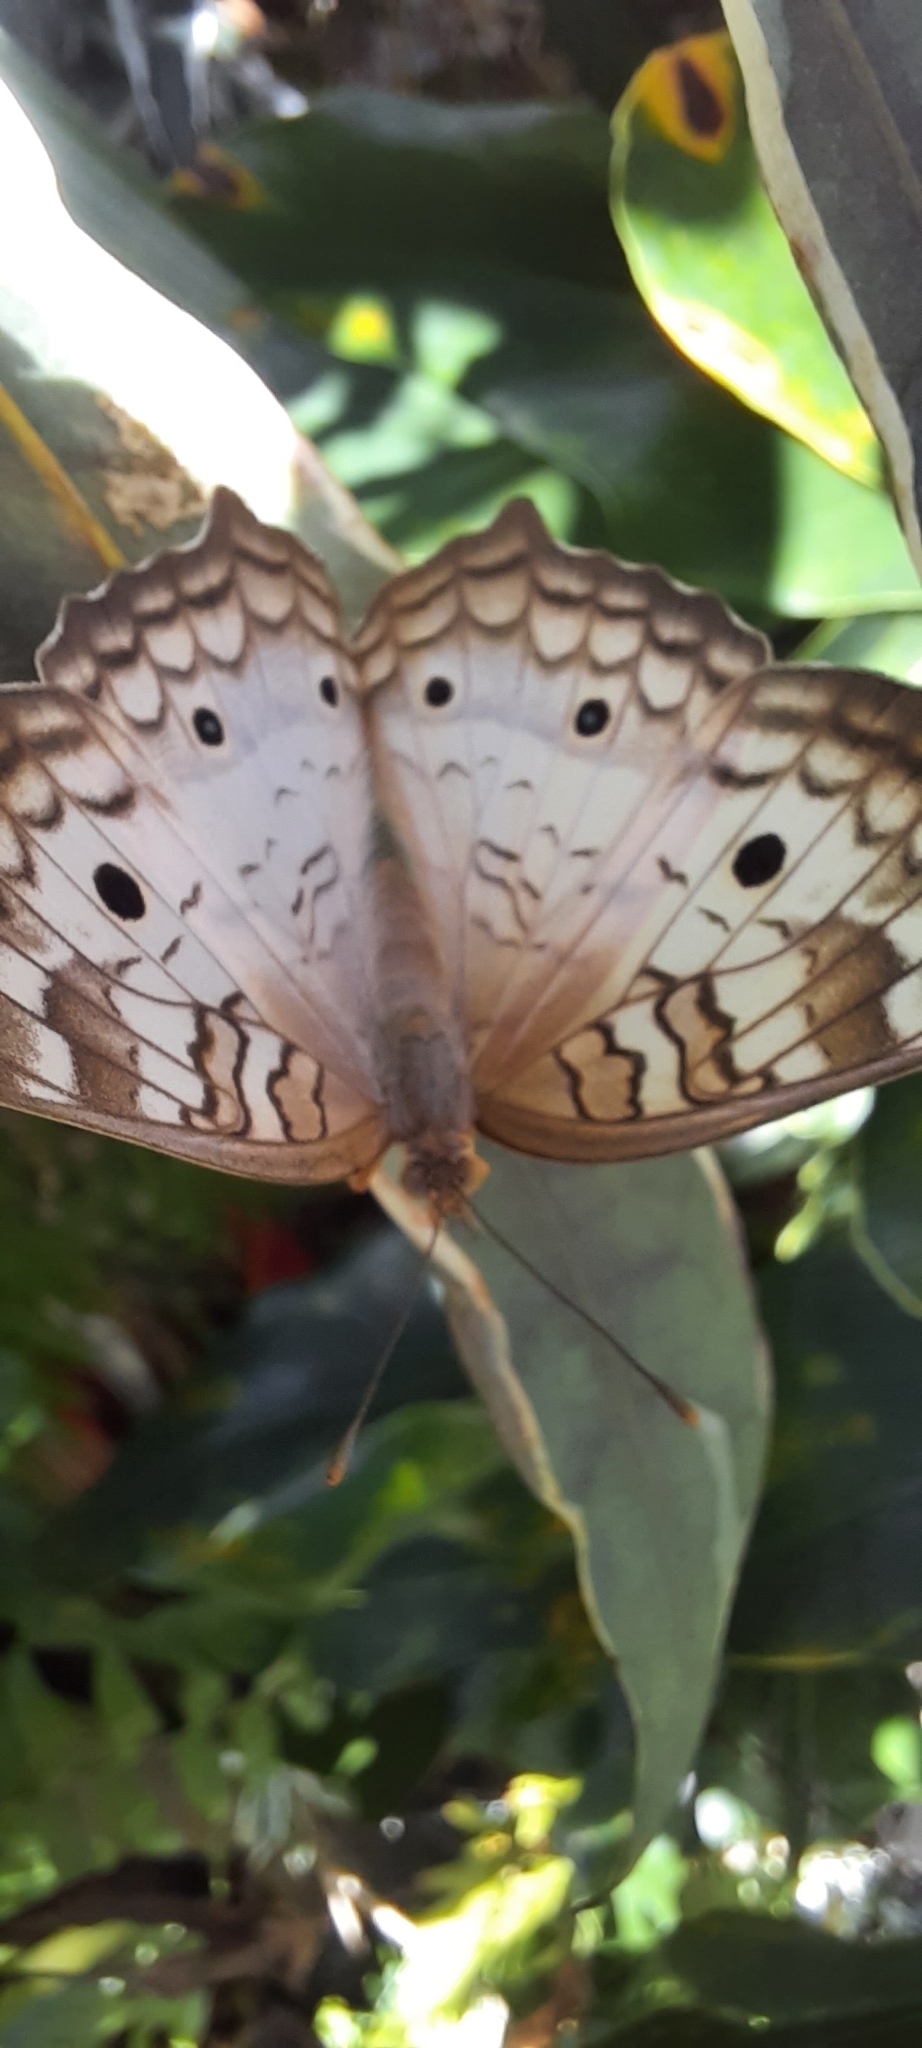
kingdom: Animalia
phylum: Arthropoda
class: Insecta
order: Lepidoptera
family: Nymphalidae
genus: Anartia
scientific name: Anartia jatrophae
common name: White peacock
